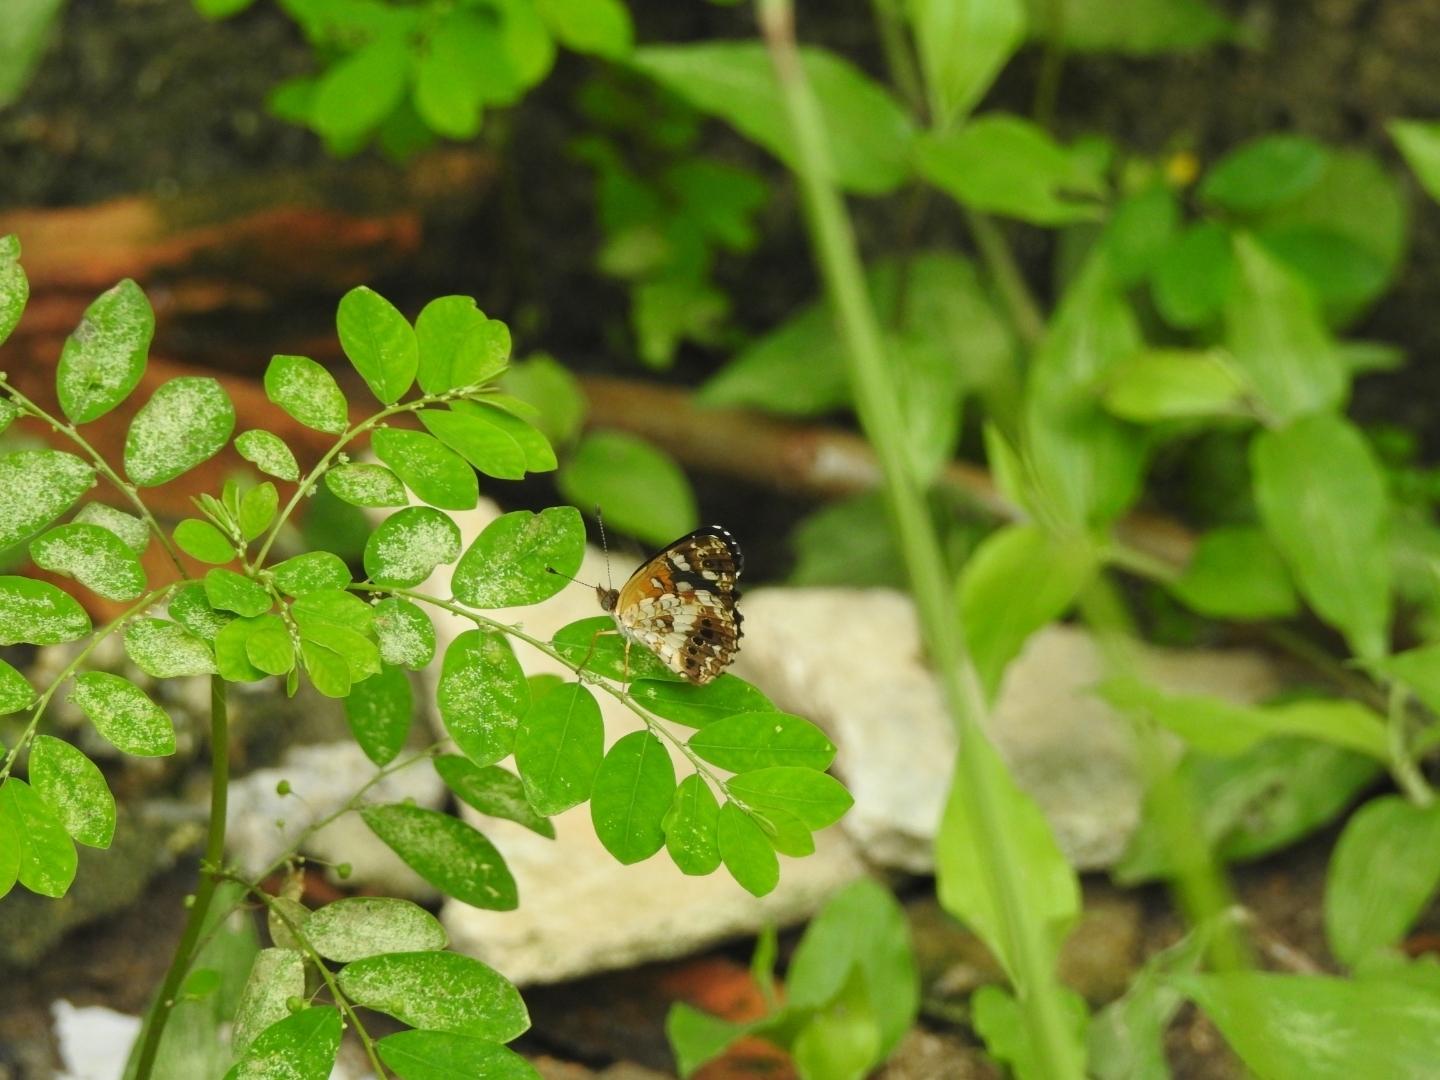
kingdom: Animalia
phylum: Arthropoda
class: Insecta
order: Lepidoptera
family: Nymphalidae
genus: Ortilia
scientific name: Ortilia ithra
